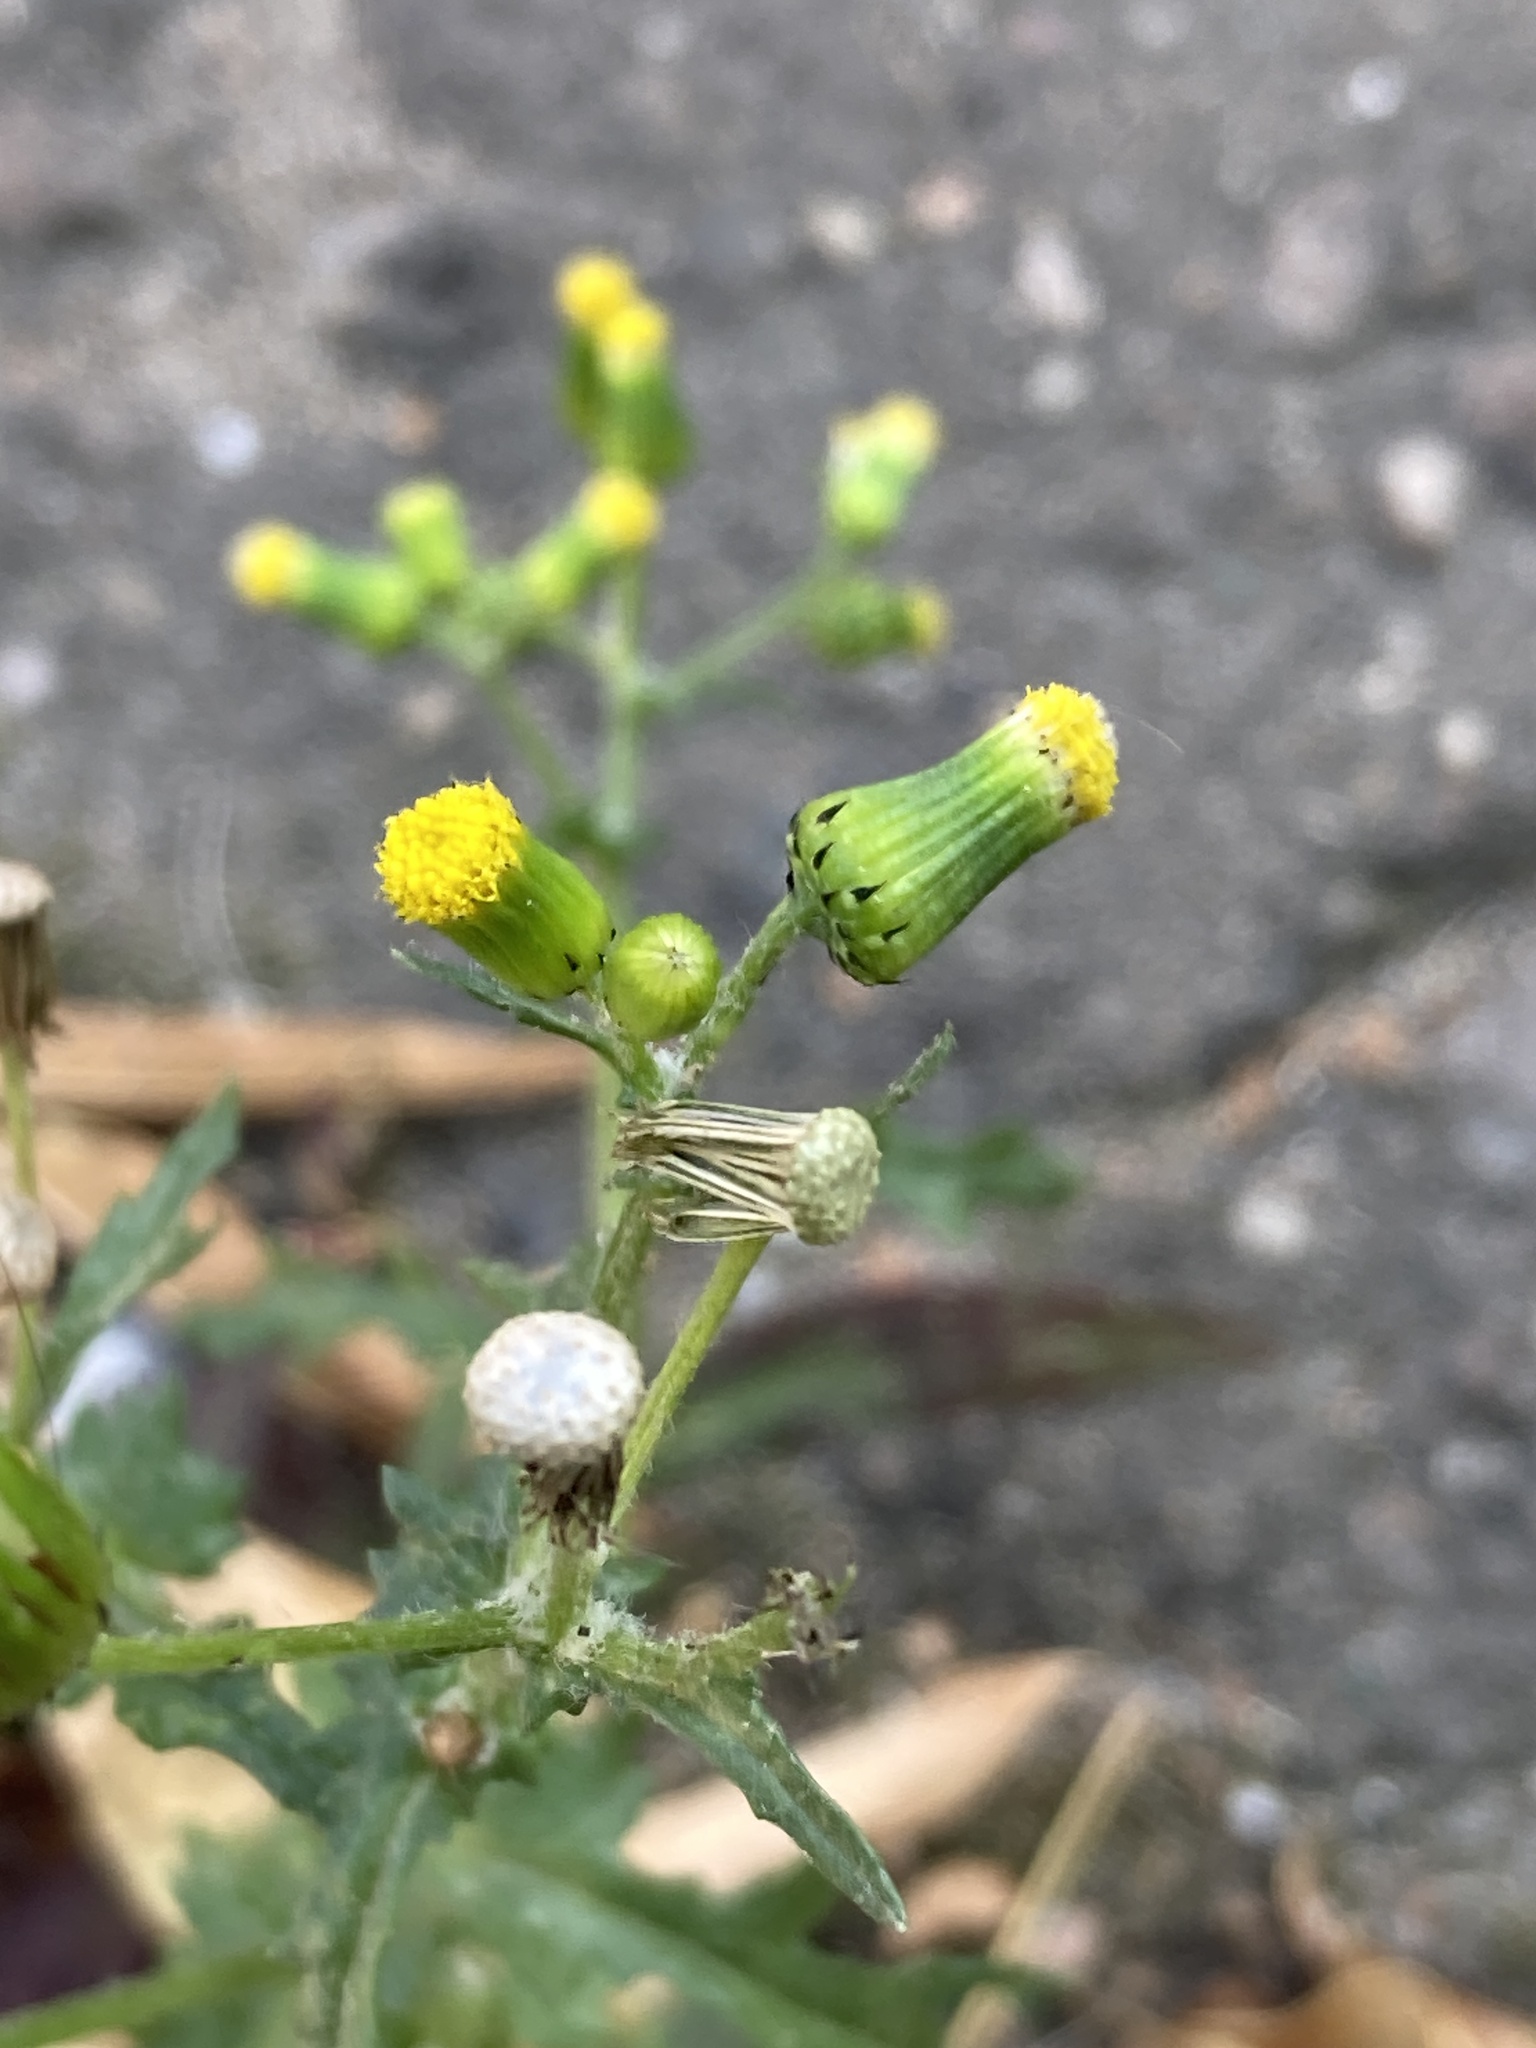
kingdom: Plantae
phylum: Tracheophyta
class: Magnoliopsida
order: Asterales
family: Asteraceae
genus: Senecio
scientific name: Senecio vulgaris
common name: Old-man-in-the-spring
